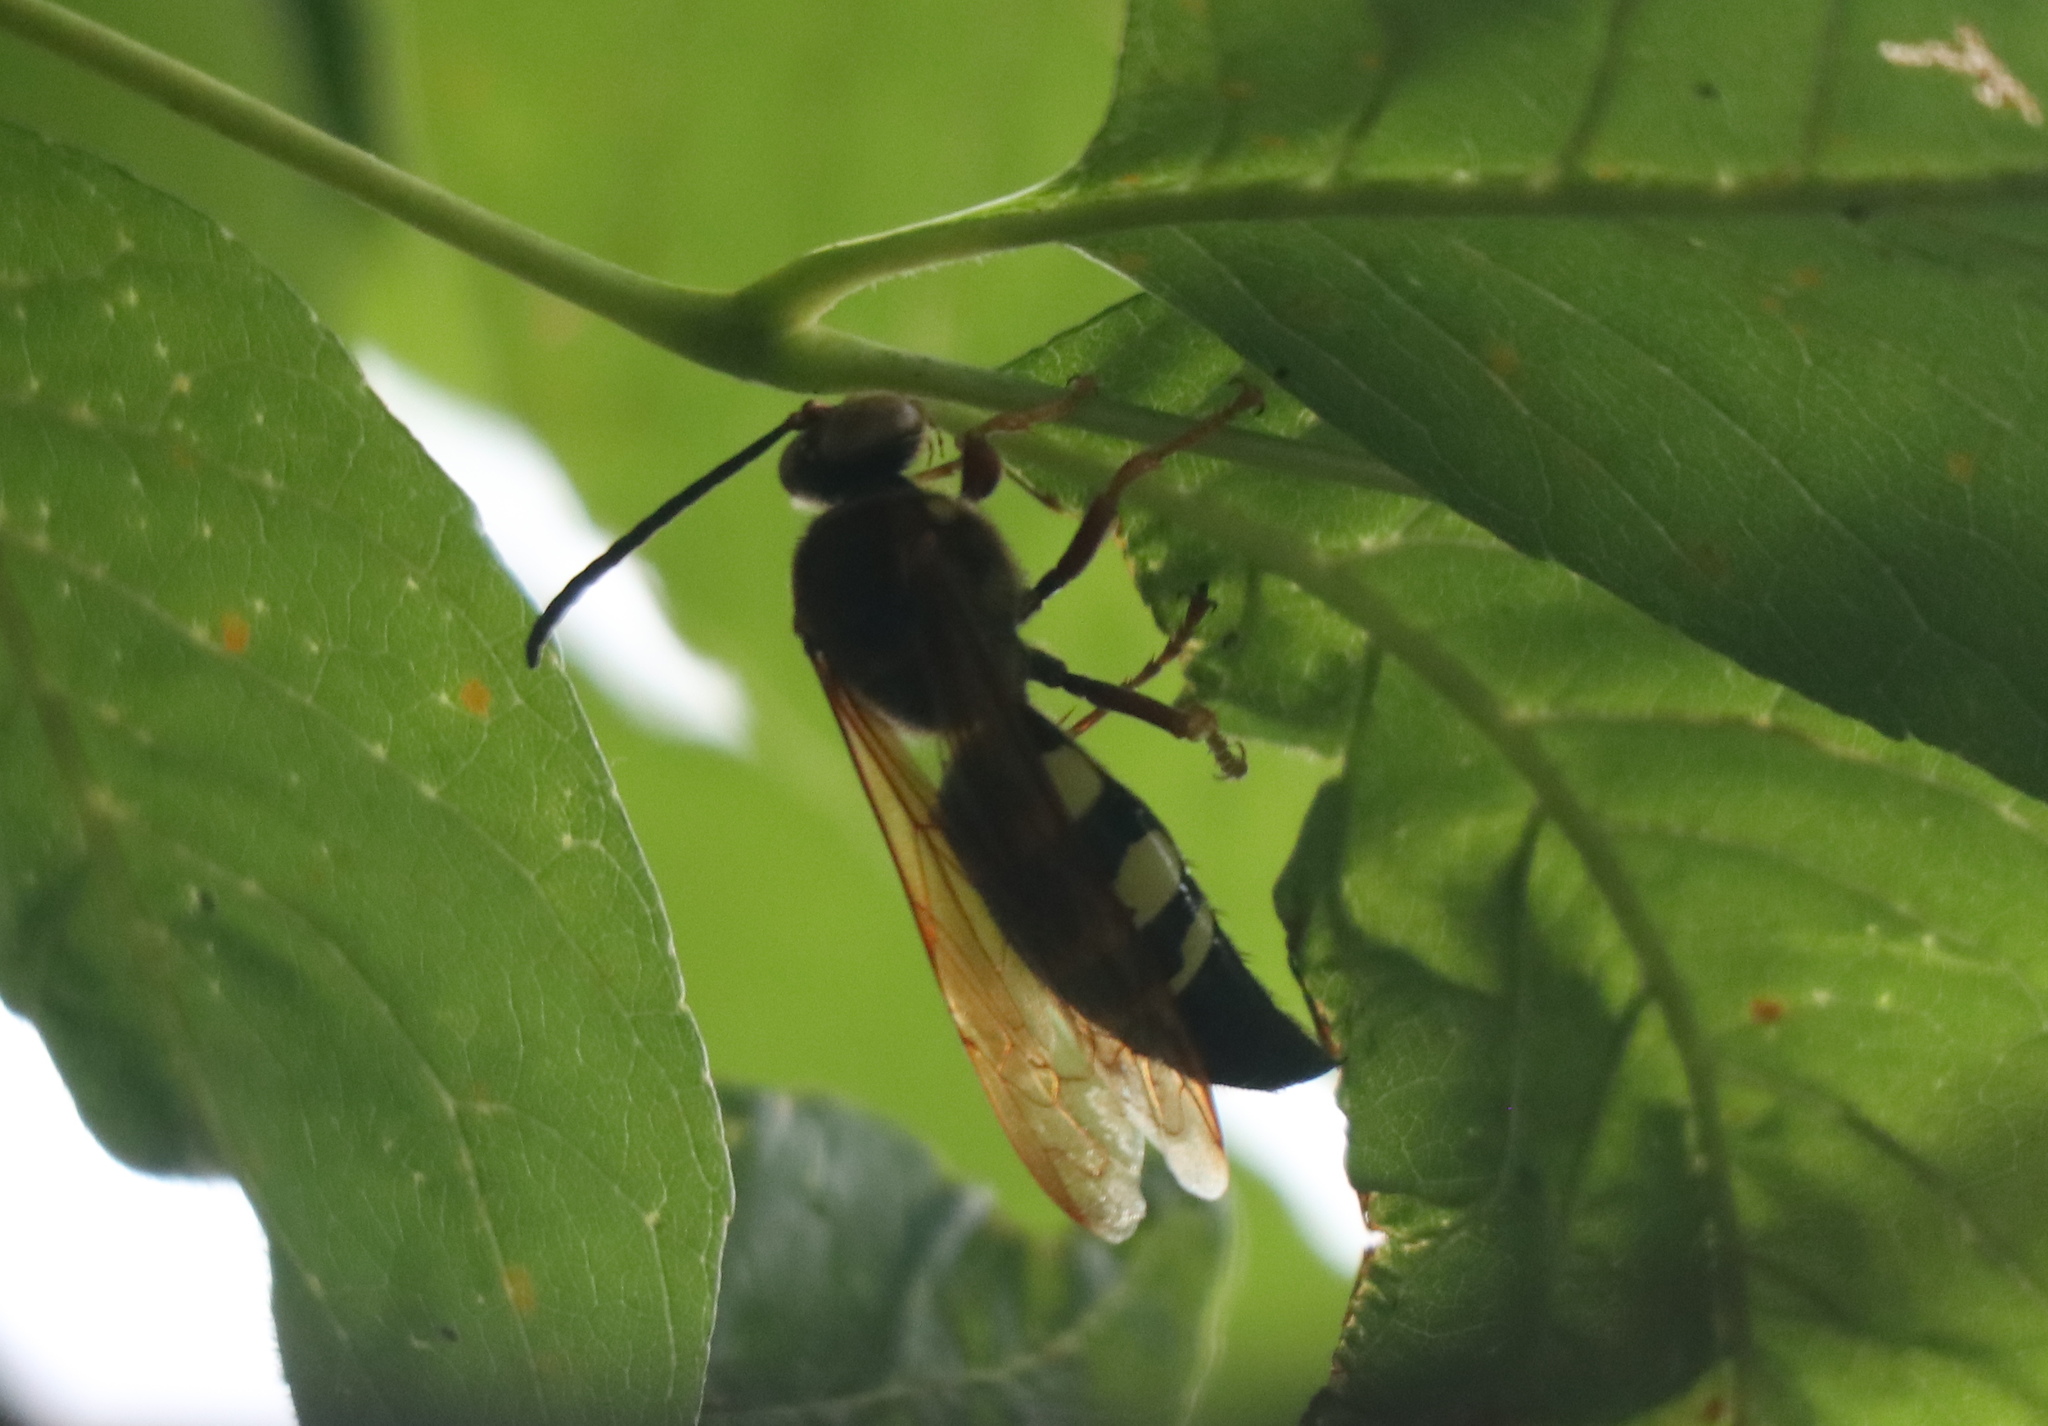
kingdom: Animalia
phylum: Arthropoda
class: Insecta
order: Hymenoptera
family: Crabronidae
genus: Sphecius
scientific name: Sphecius speciosus
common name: Cicada killer
